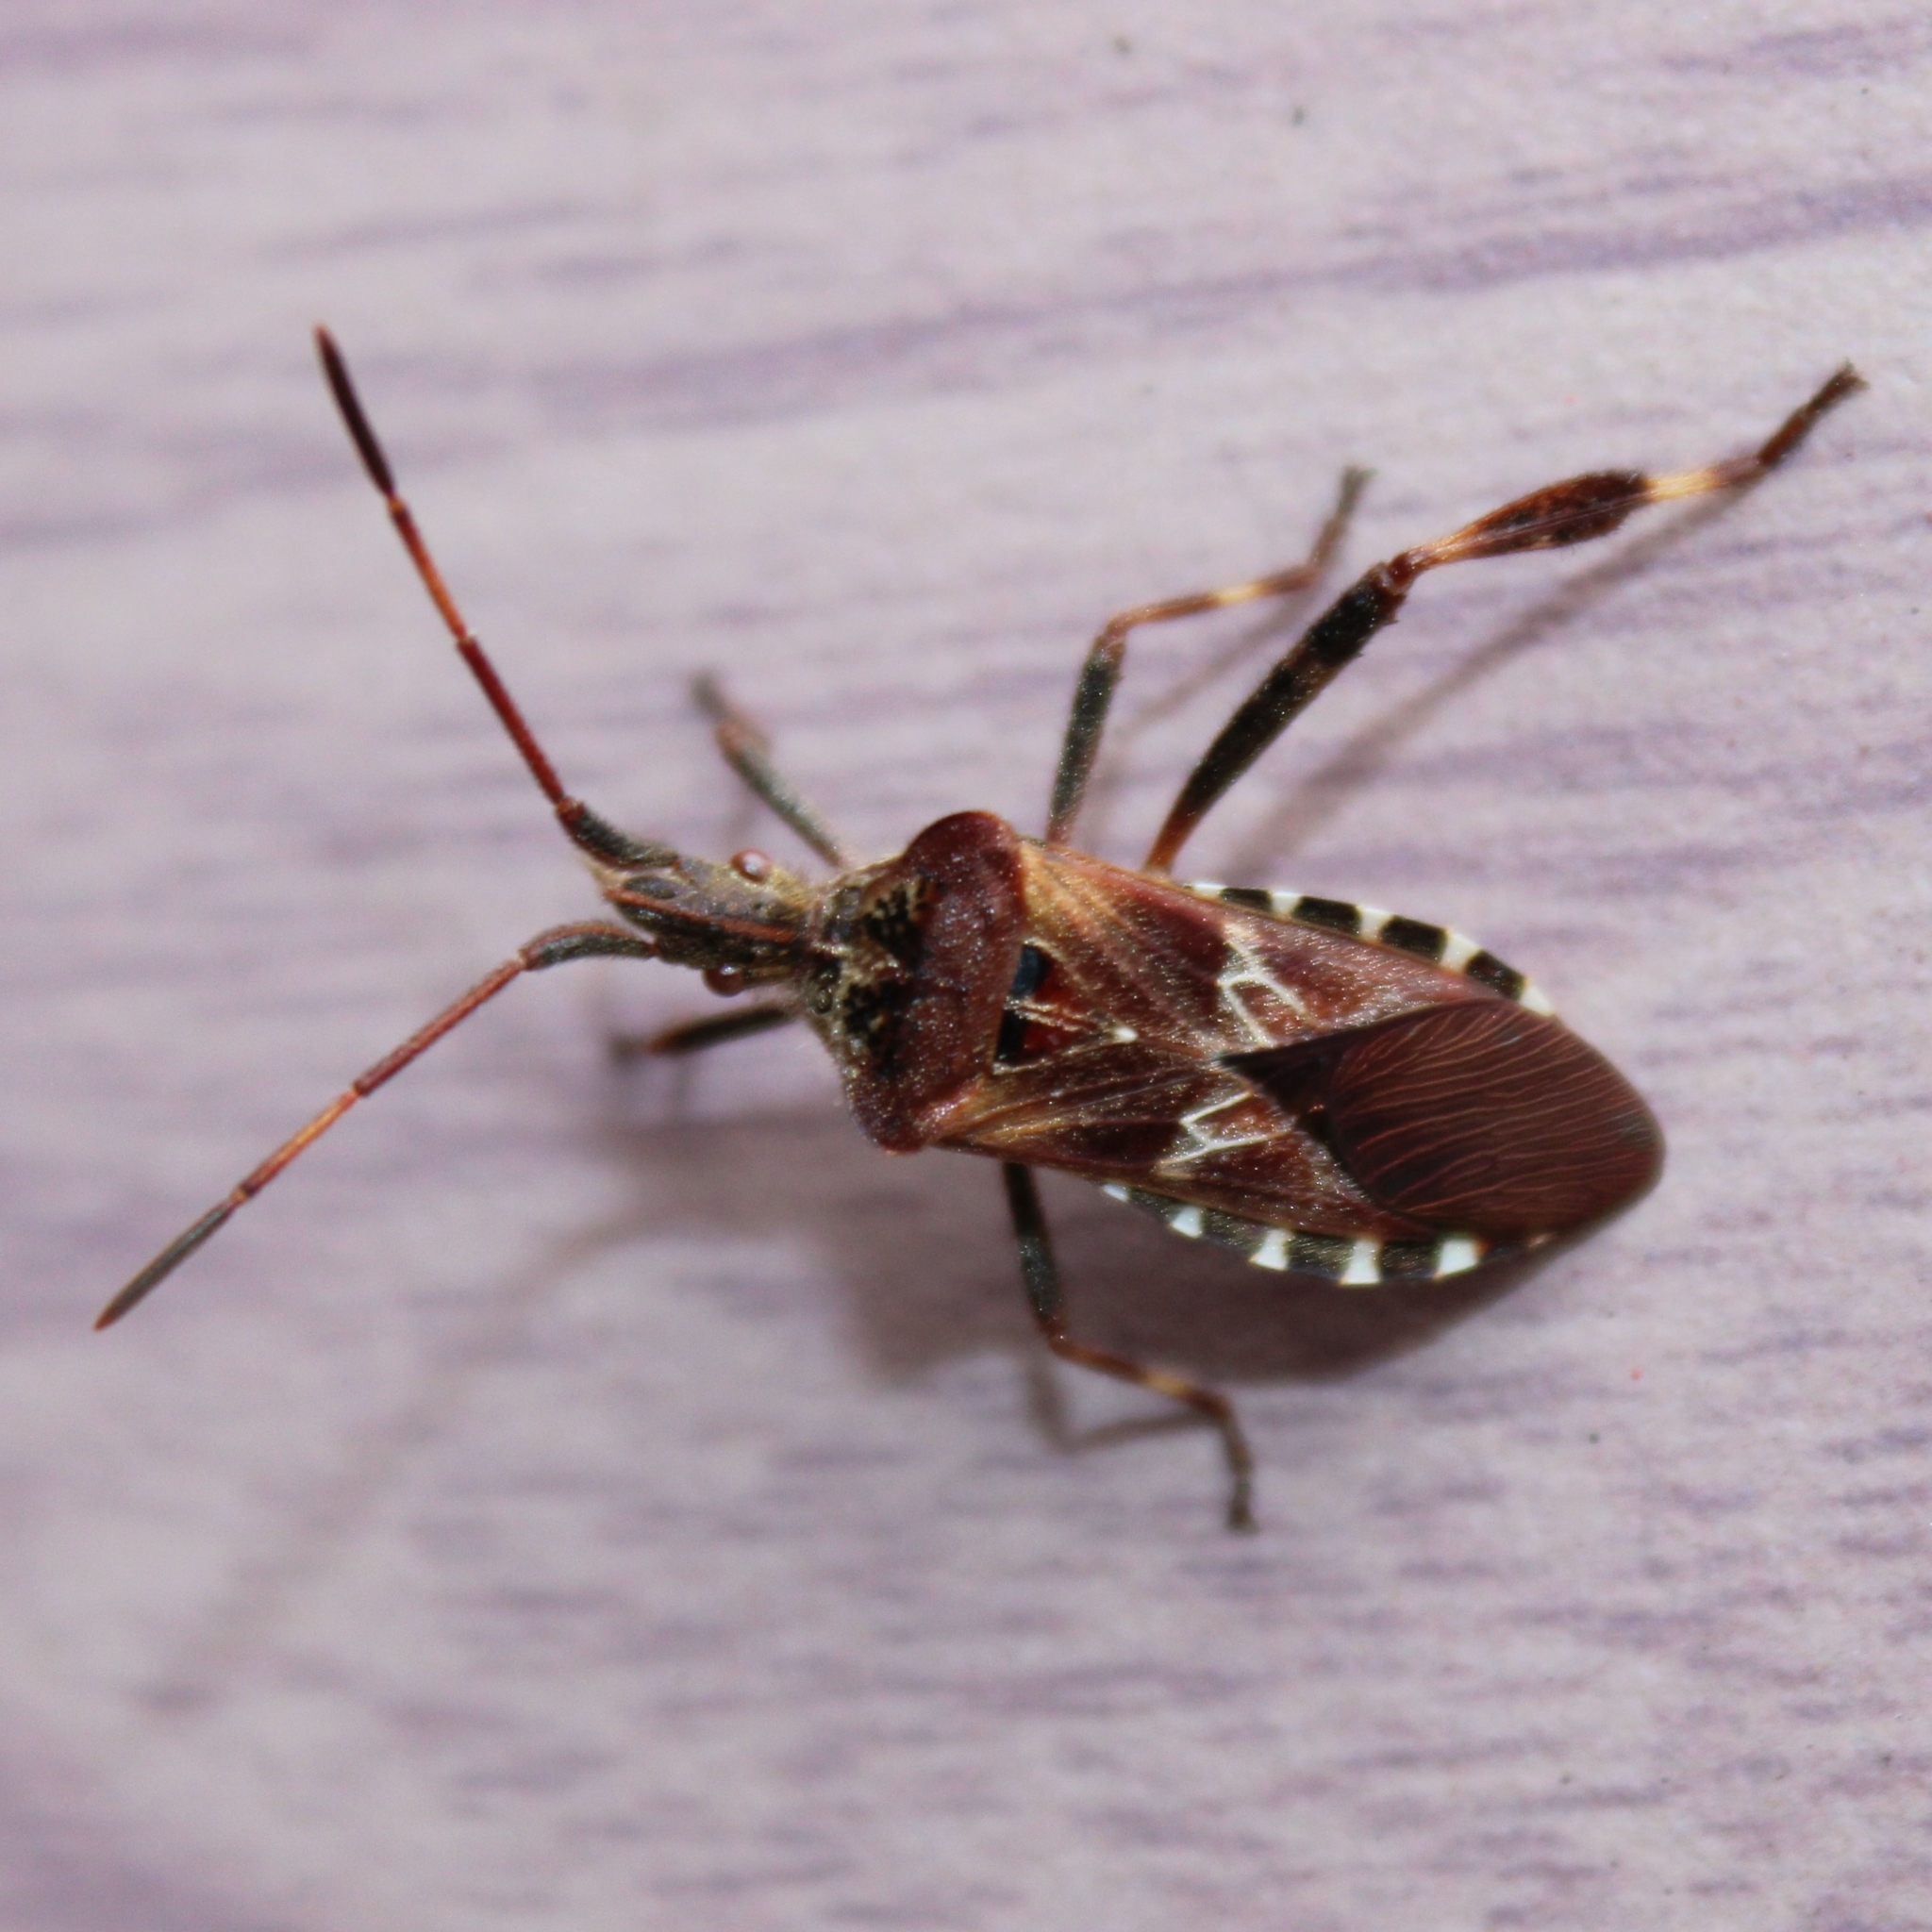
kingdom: Animalia
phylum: Arthropoda
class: Insecta
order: Hemiptera
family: Coreidae
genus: Leptoglossus
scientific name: Leptoglossus occidentalis
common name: Western conifer-seed bug
